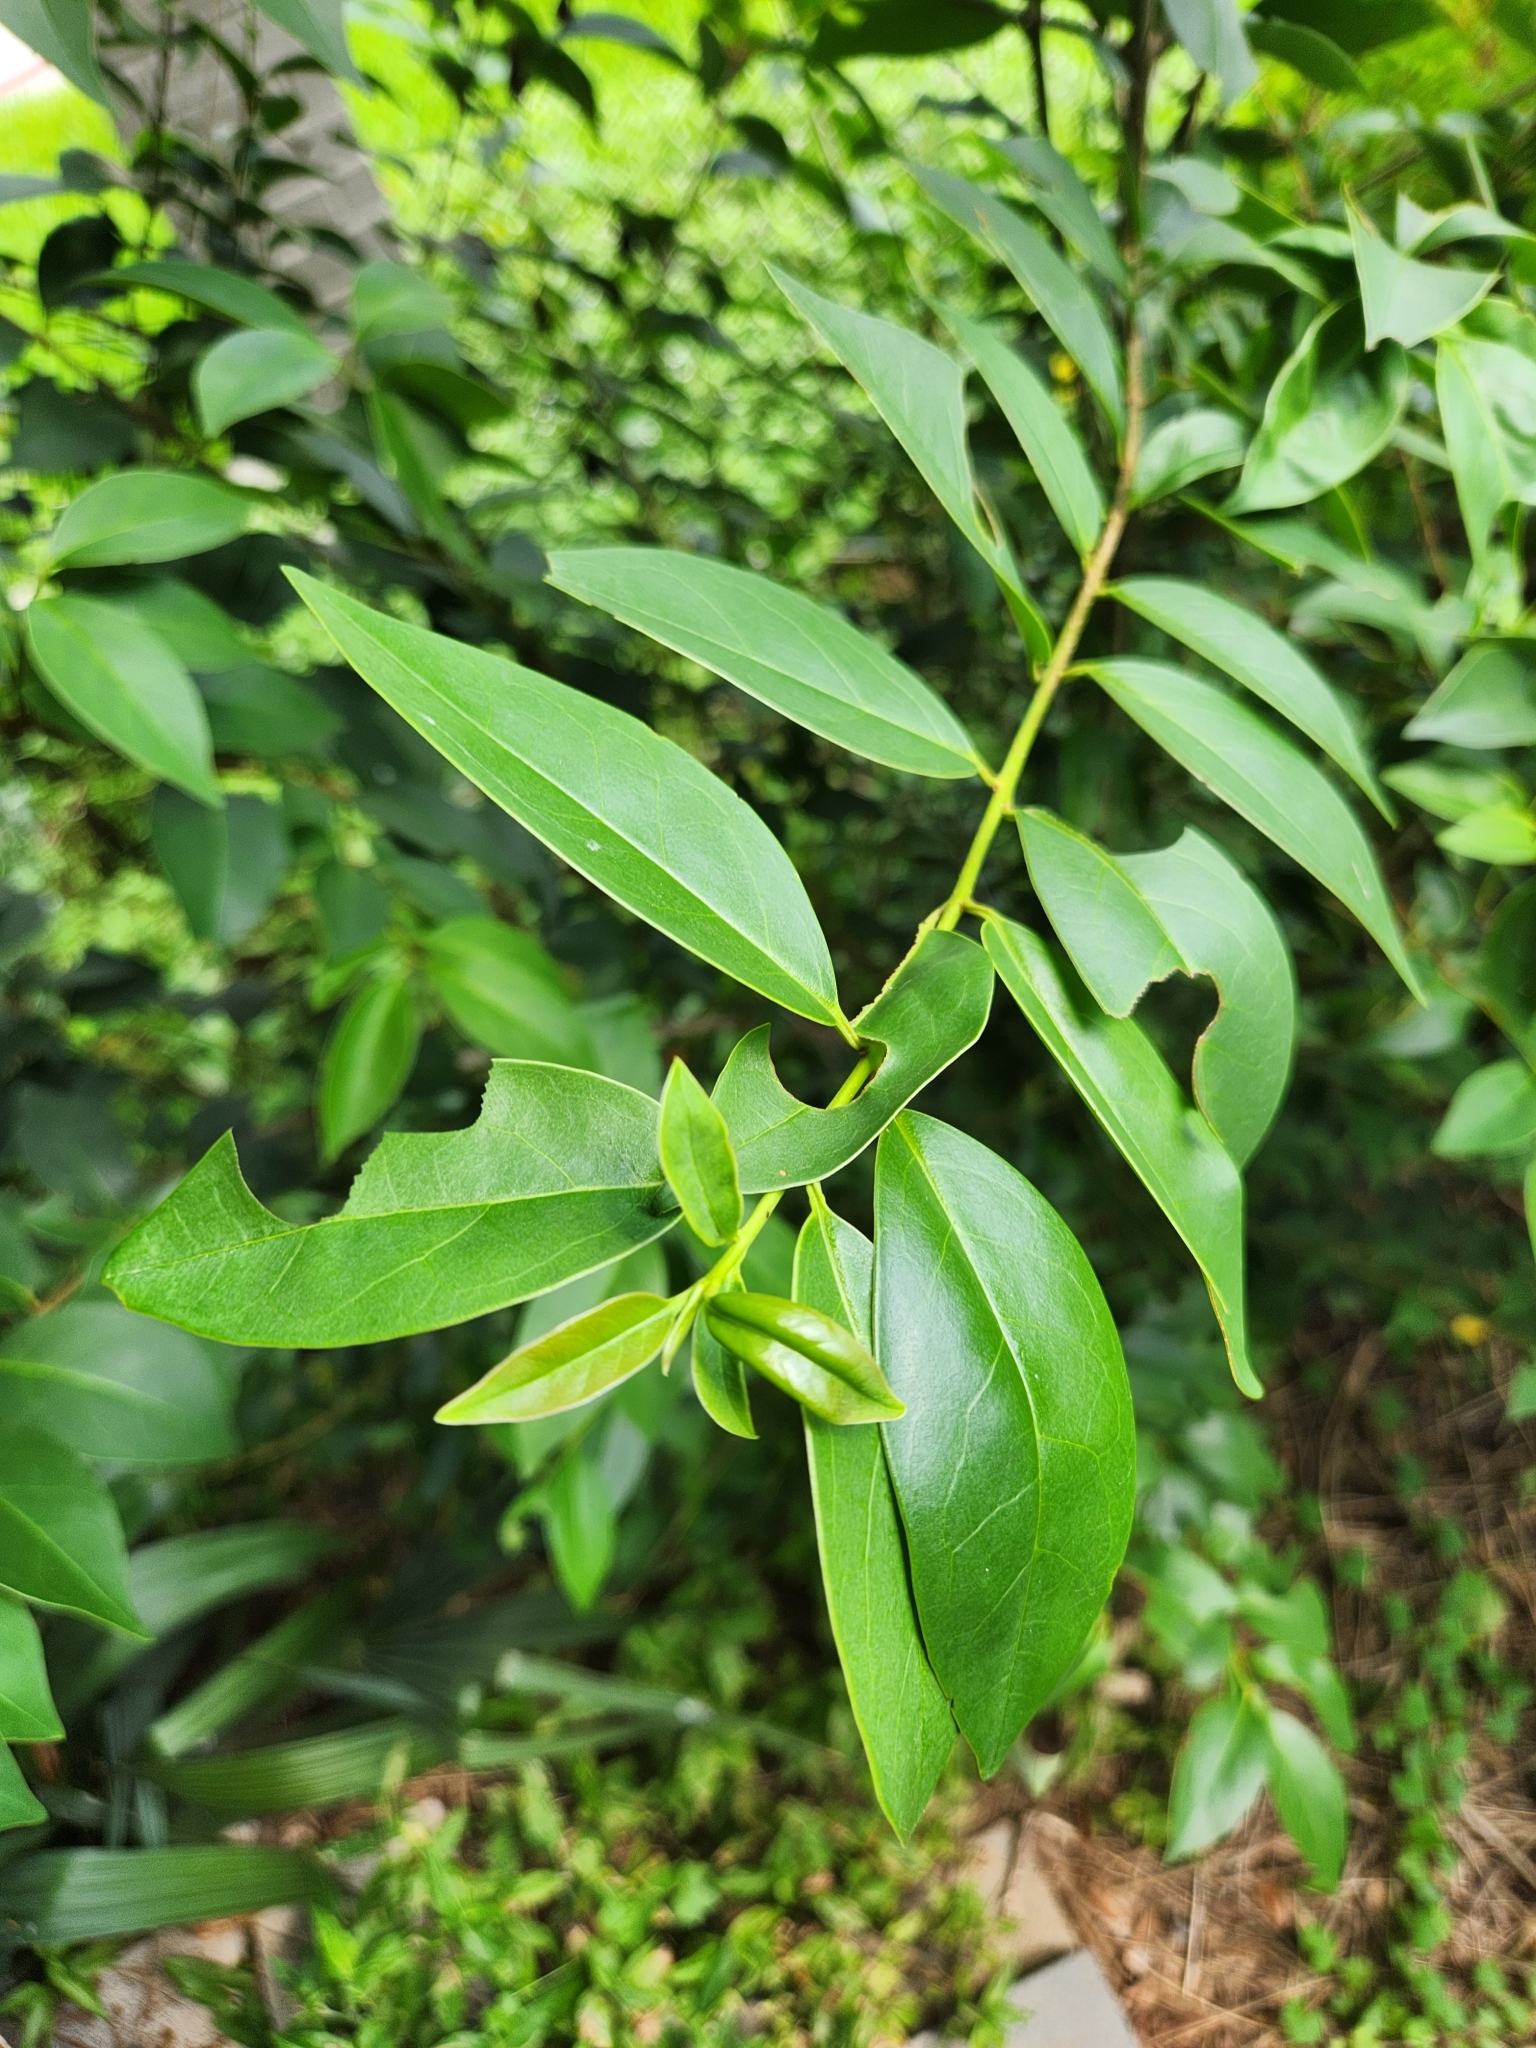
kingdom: Plantae
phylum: Tracheophyta
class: Magnoliopsida
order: Lamiales
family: Oleaceae
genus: Ligustrum
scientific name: Ligustrum lucidum
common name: Glossy privet
